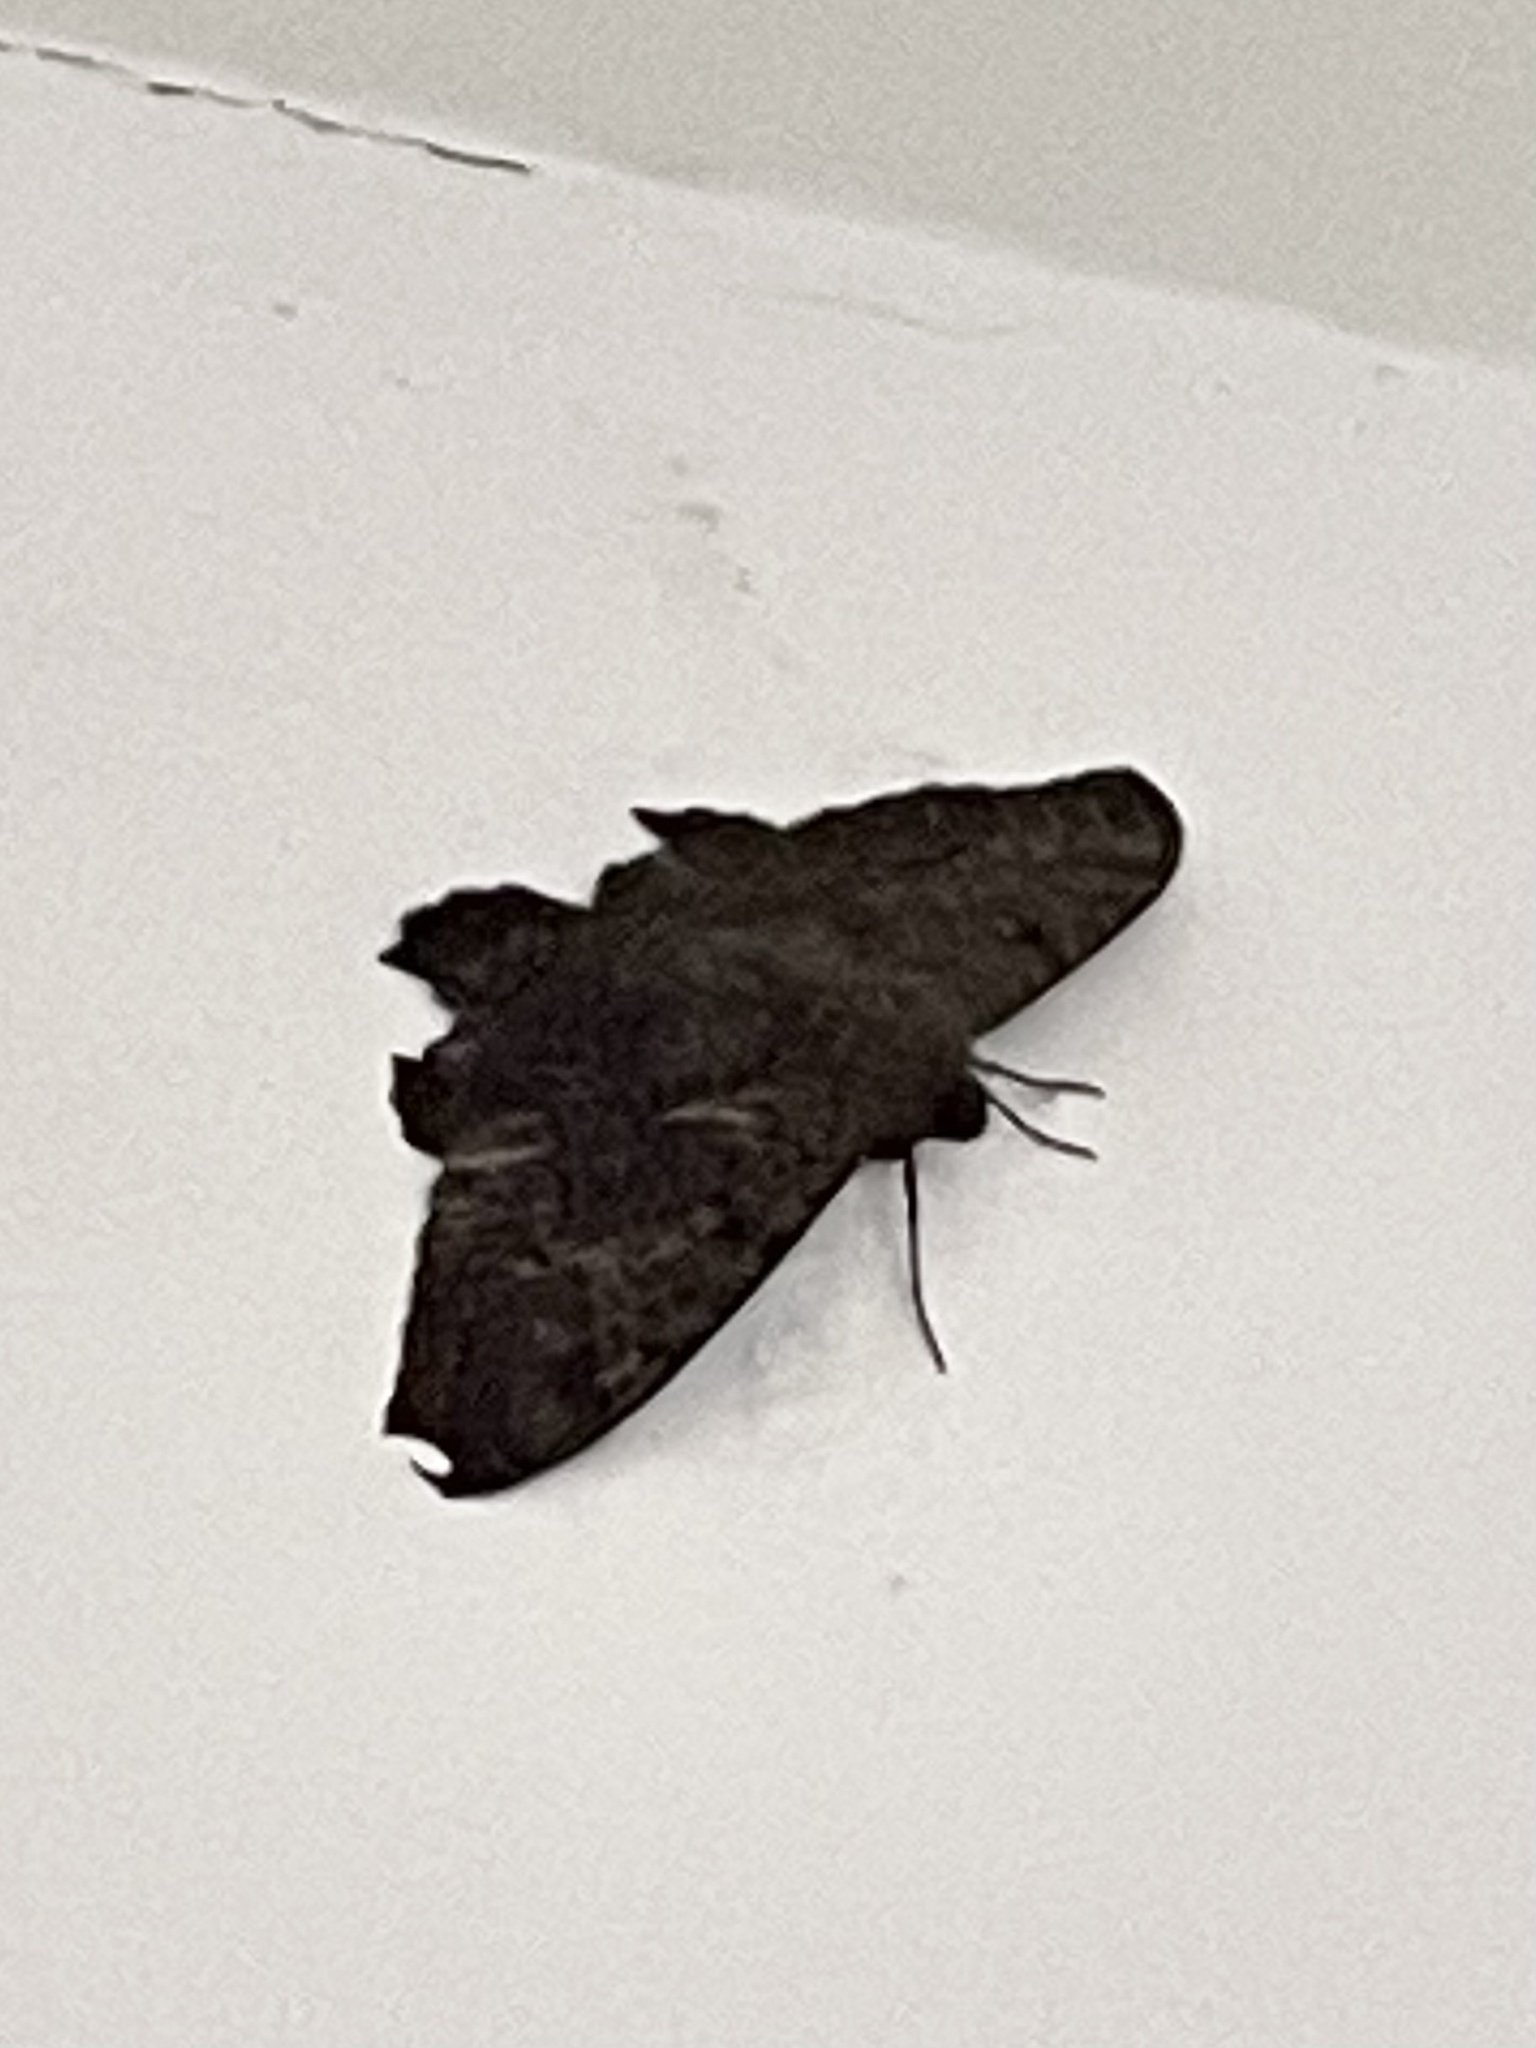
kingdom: Animalia
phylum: Arthropoda
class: Insecta
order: Lepidoptera
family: Erebidae
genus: Ascalapha
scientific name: Ascalapha odorata
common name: Black witch
